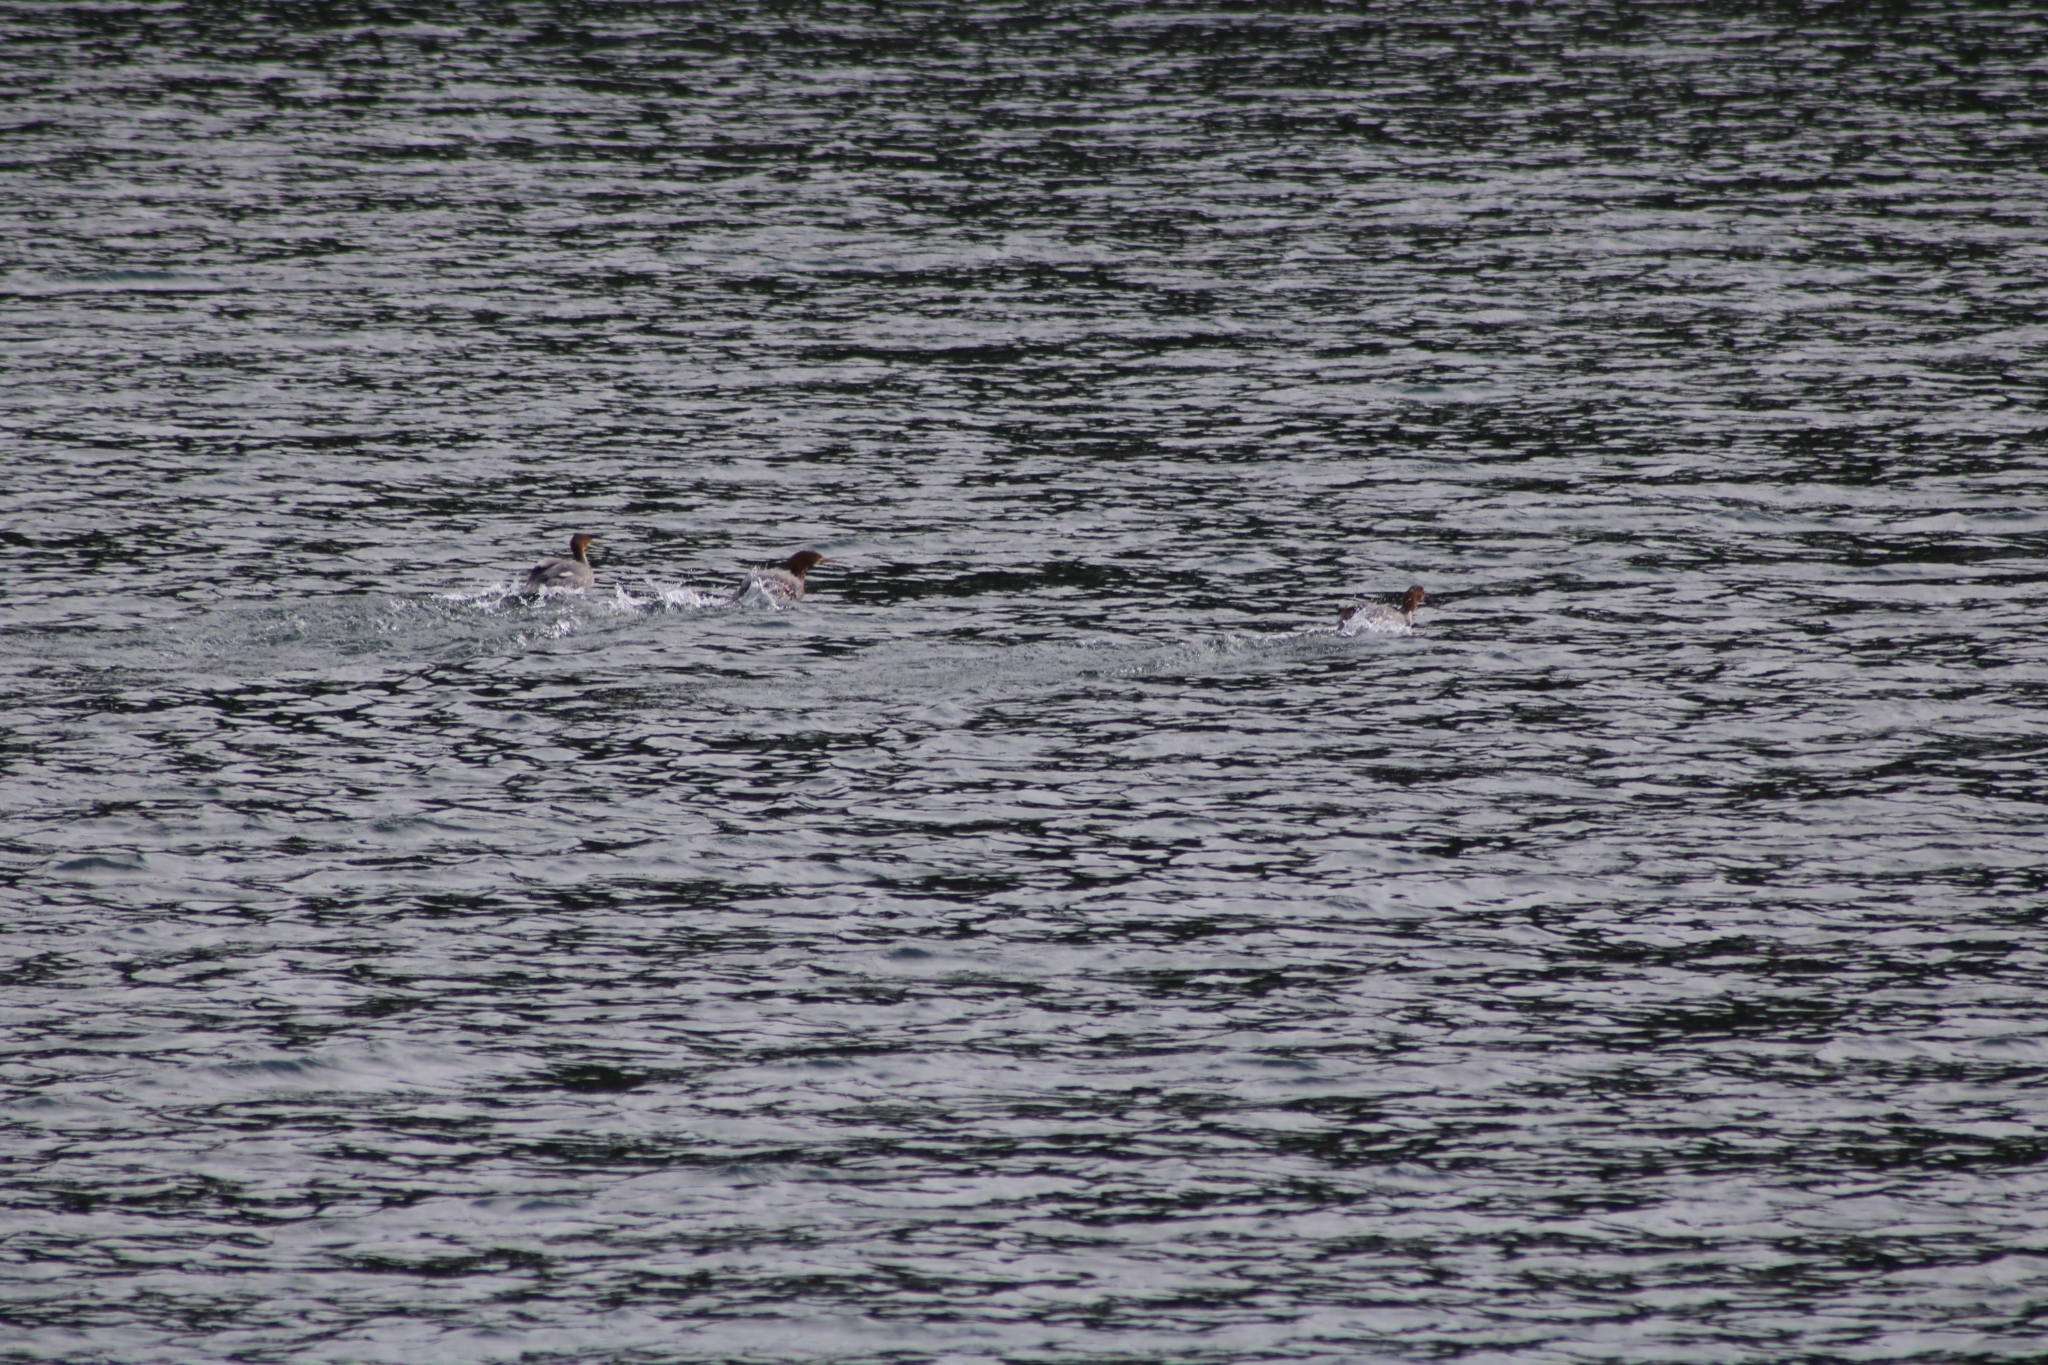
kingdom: Animalia
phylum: Chordata
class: Aves
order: Anseriformes
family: Anatidae
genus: Mergus
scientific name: Mergus merganser
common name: Common merganser
